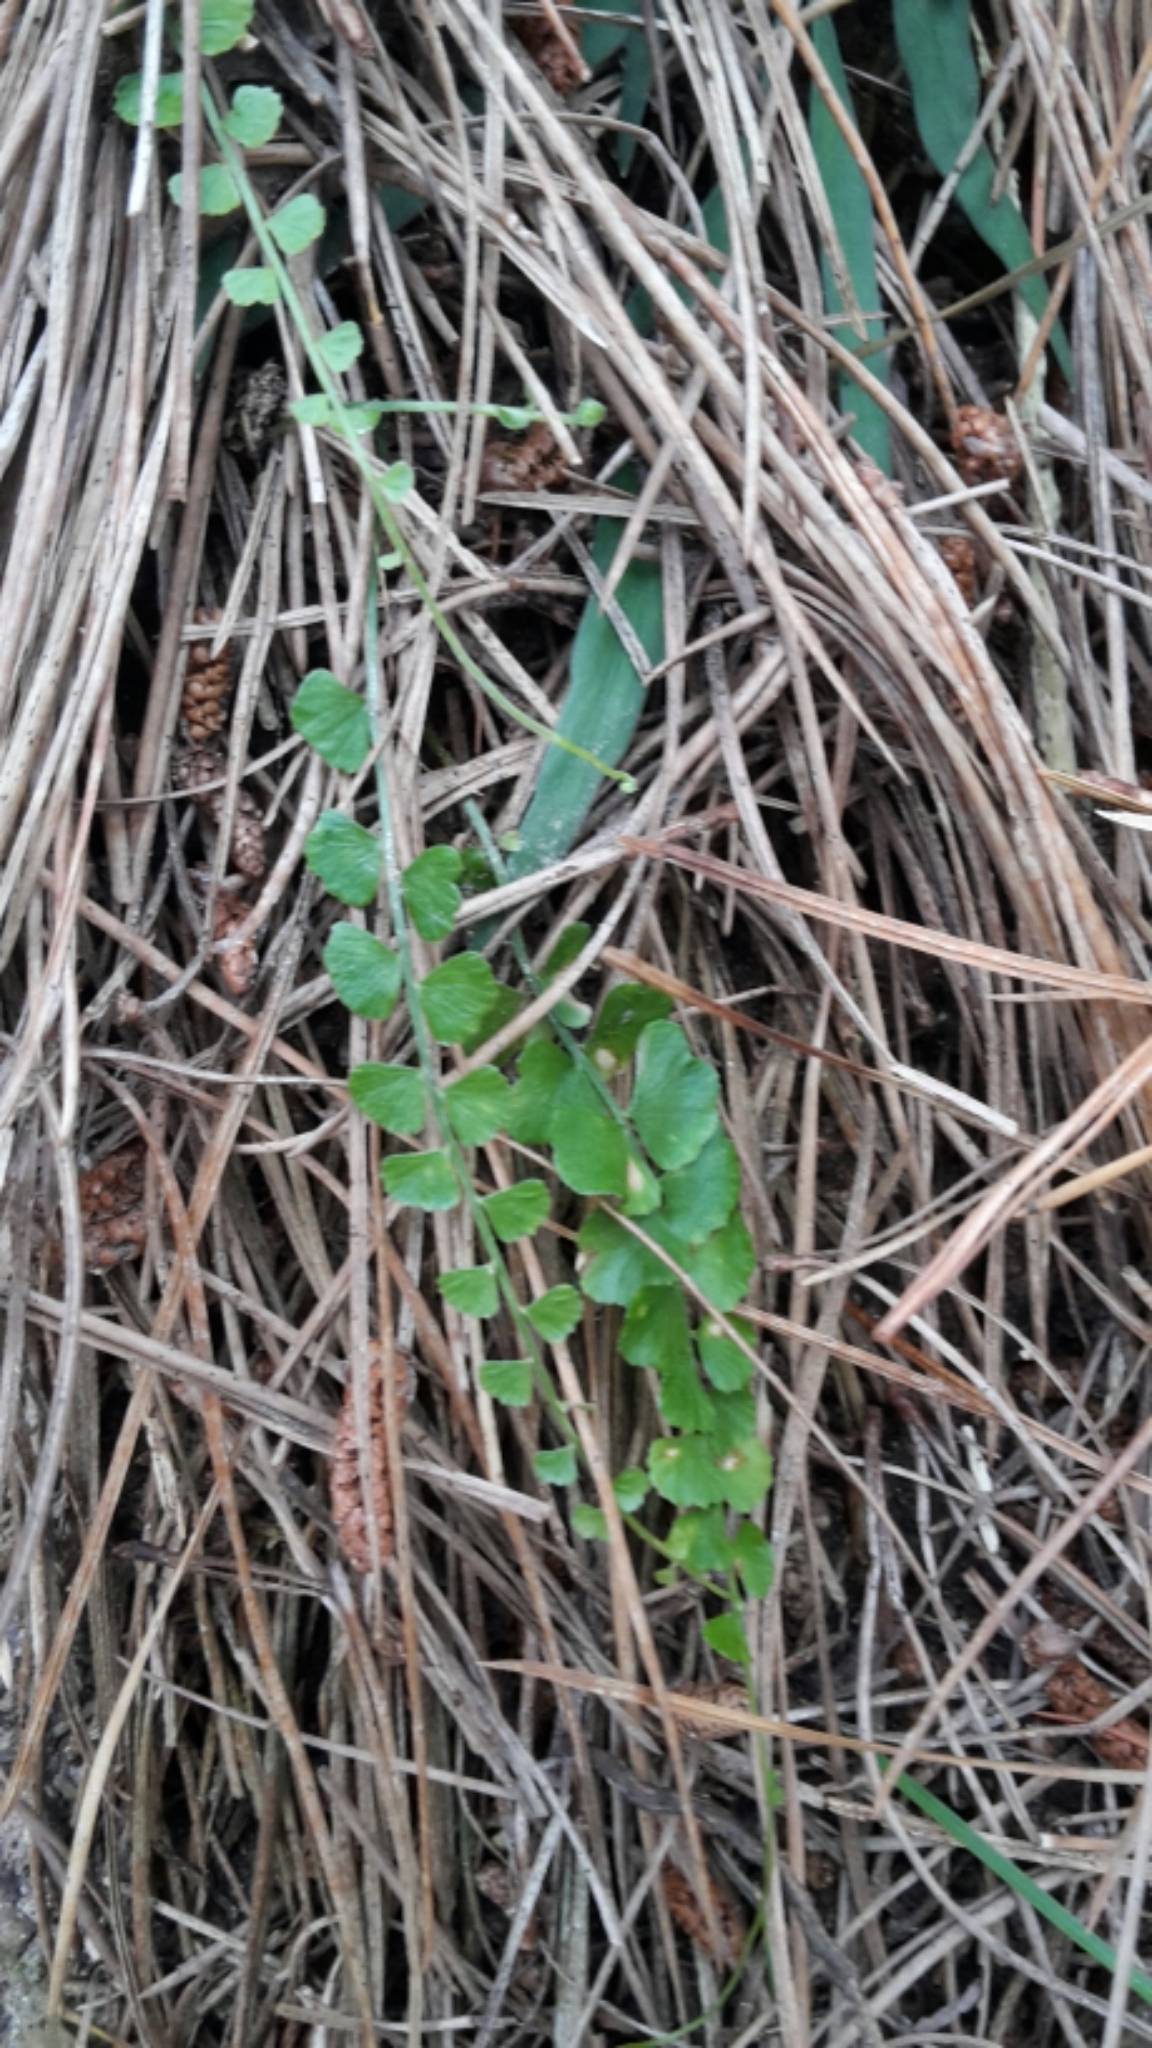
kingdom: Plantae
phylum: Tracheophyta
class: Polypodiopsida
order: Polypodiales
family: Aspleniaceae
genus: Asplenium
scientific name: Asplenium flabellifolium
